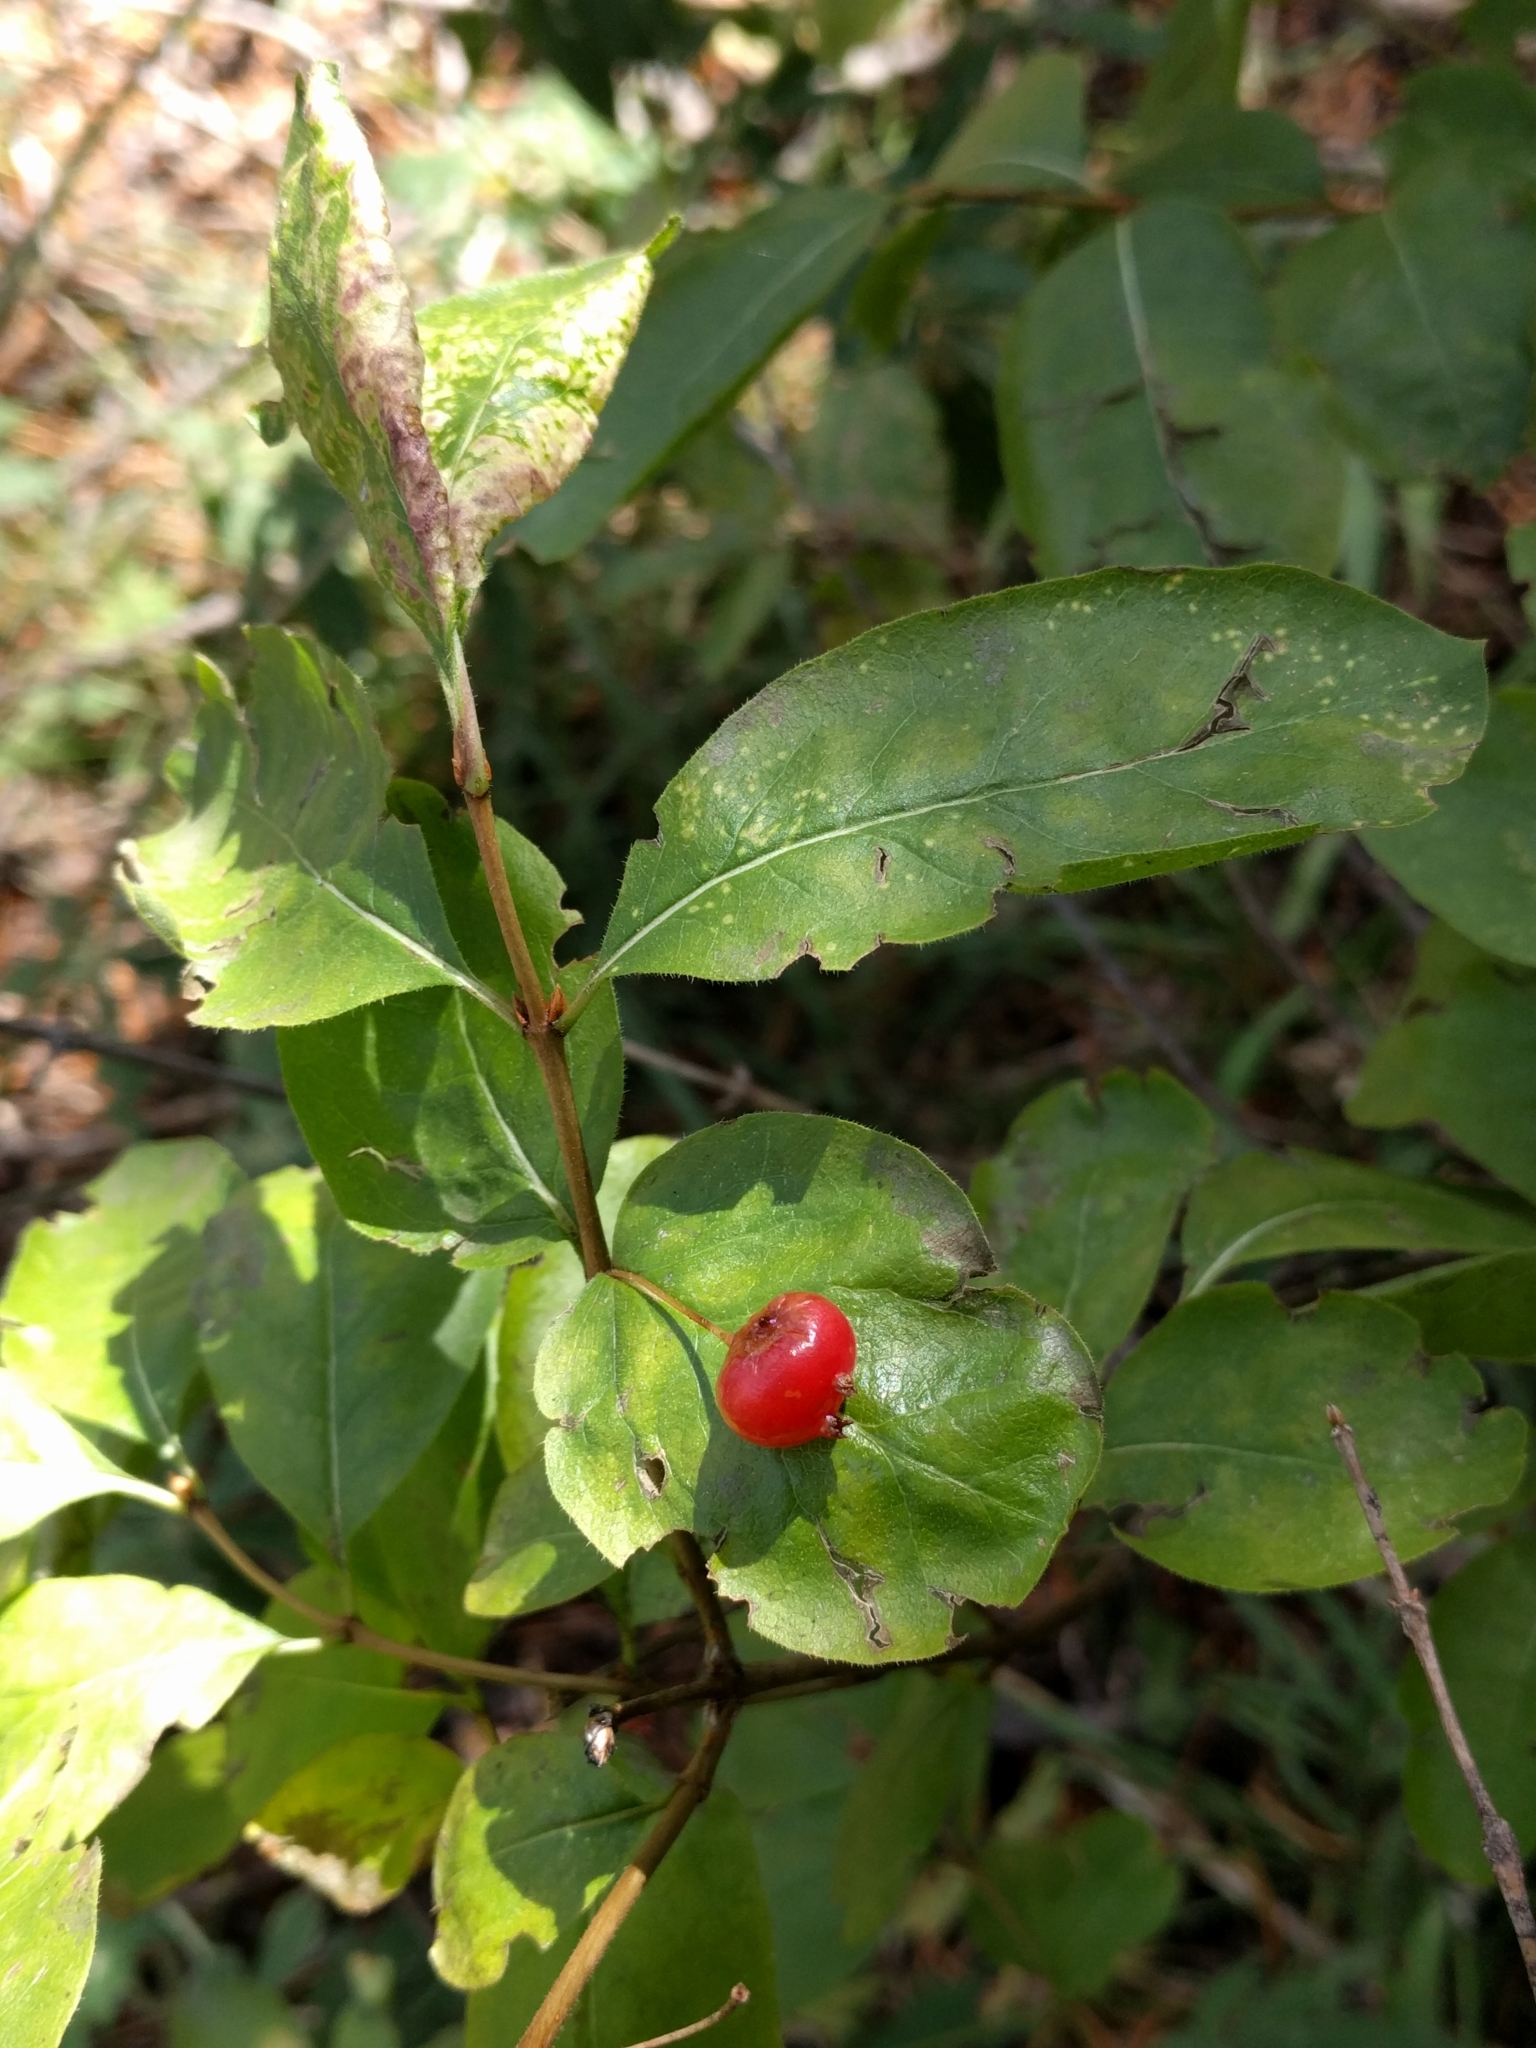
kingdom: Plantae
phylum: Tracheophyta
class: Magnoliopsida
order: Dipsacales
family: Caprifoliaceae
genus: Lonicera
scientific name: Lonicera conjugialis
